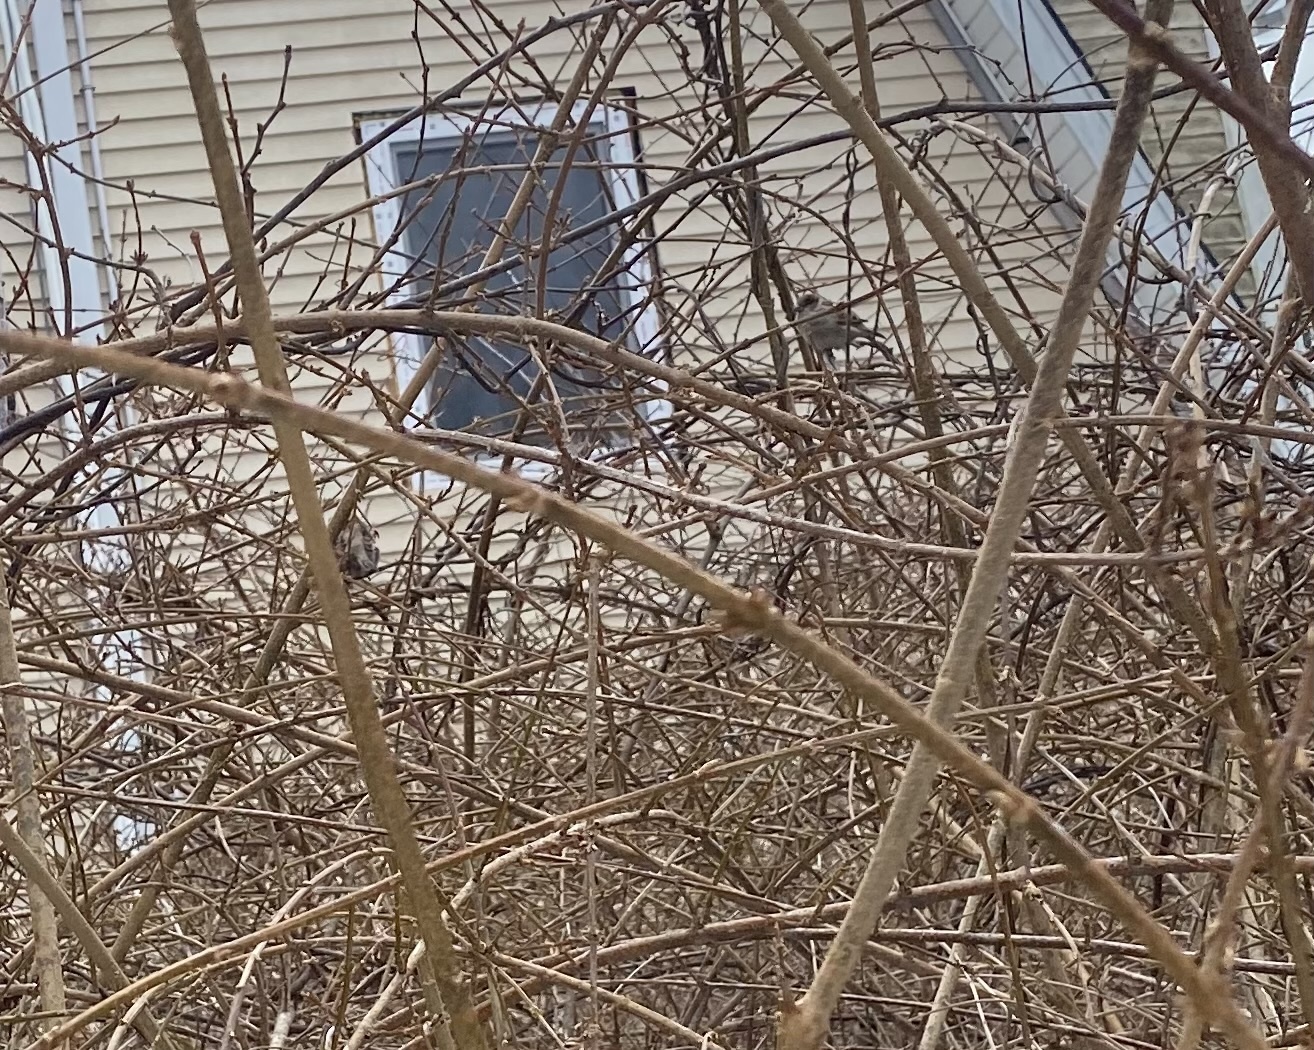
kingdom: Animalia
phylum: Chordata
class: Aves
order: Passeriformes
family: Passeridae
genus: Passer
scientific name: Passer domesticus
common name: House sparrow
